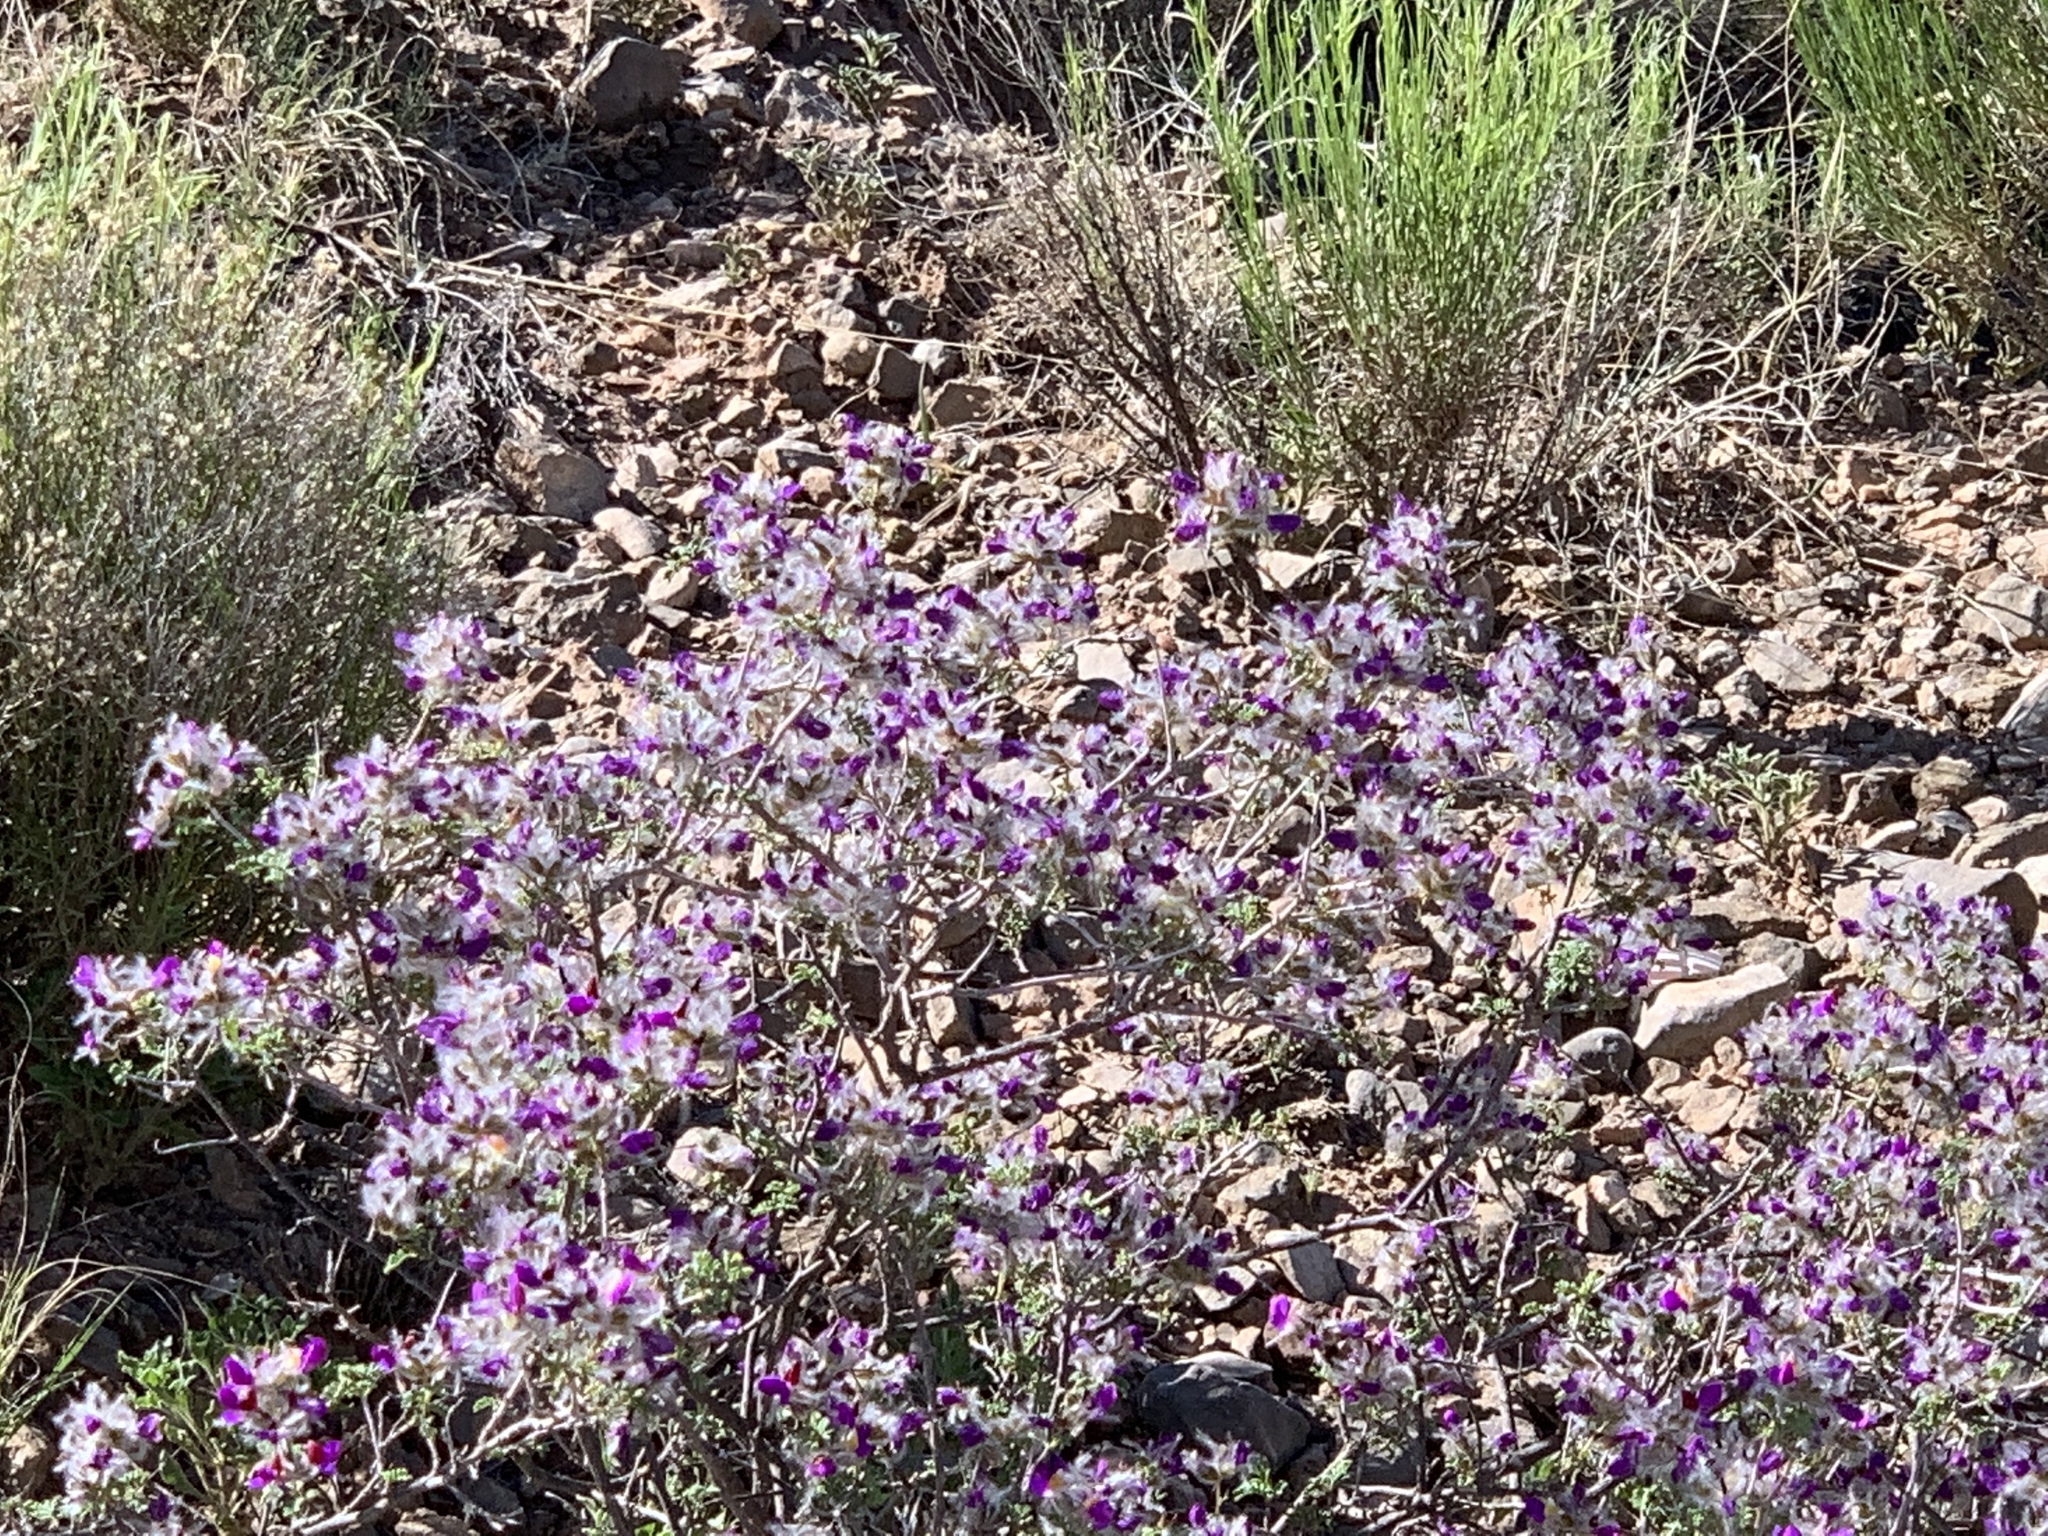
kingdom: Plantae
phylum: Tracheophyta
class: Magnoliopsida
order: Fabales
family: Fabaceae
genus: Dalea
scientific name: Dalea formosa
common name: Feather-plume dalea
